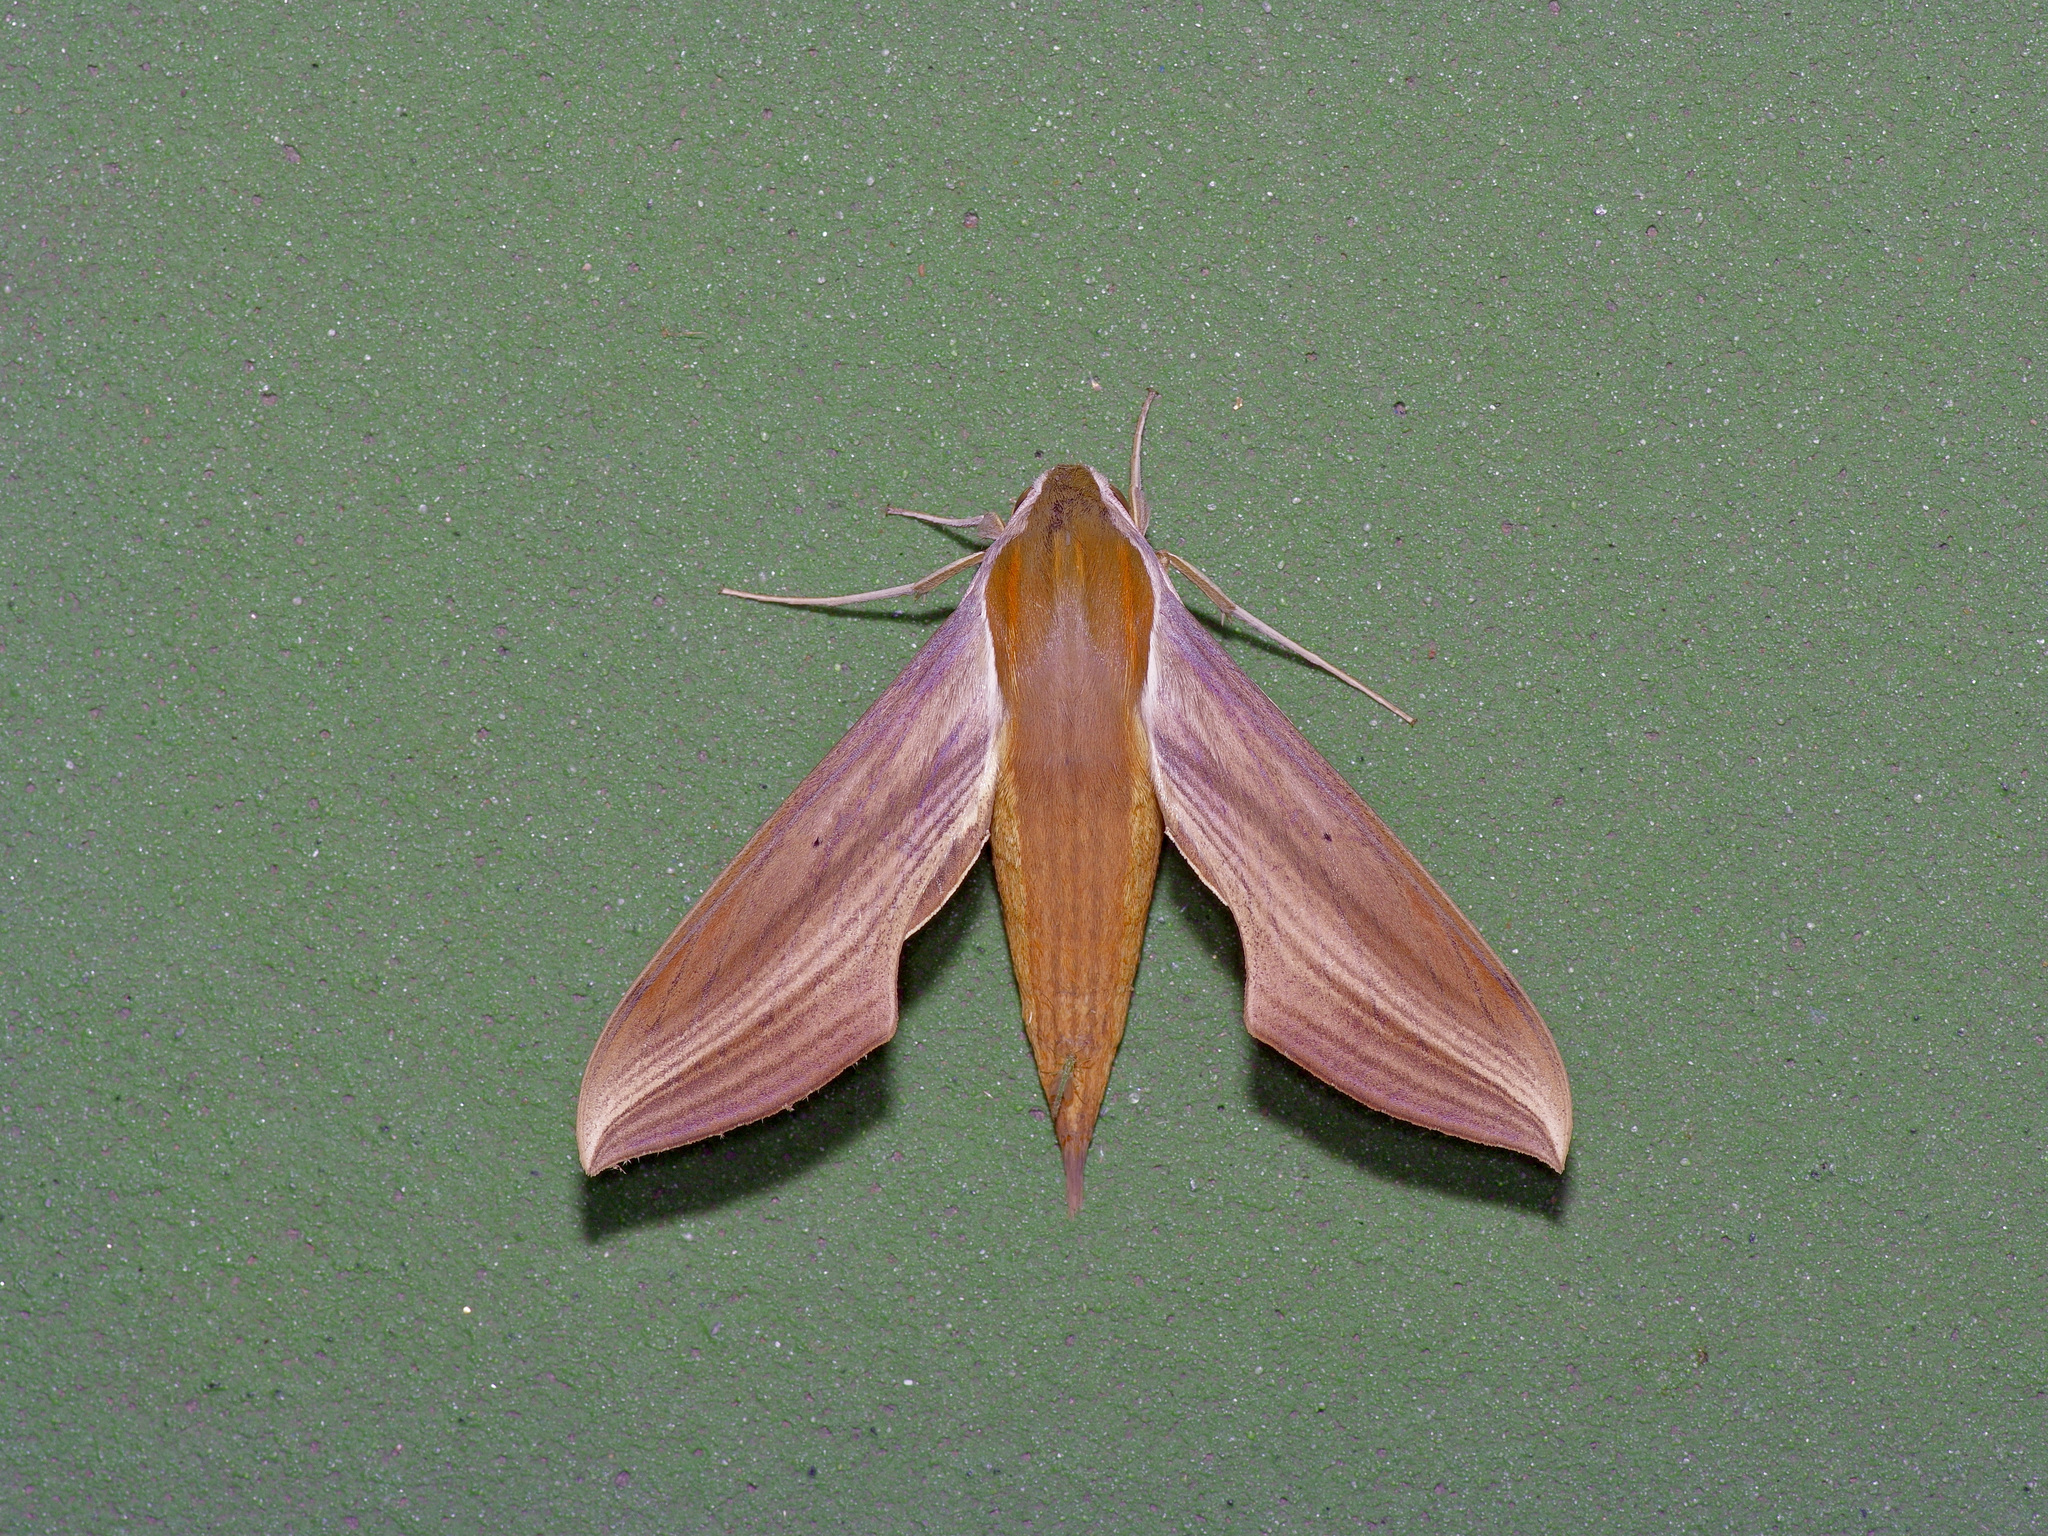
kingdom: Animalia
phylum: Arthropoda
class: Insecta
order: Lepidoptera
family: Sphingidae
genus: Xylophanes
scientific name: Xylophanes tersa
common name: Tersa sphinx
